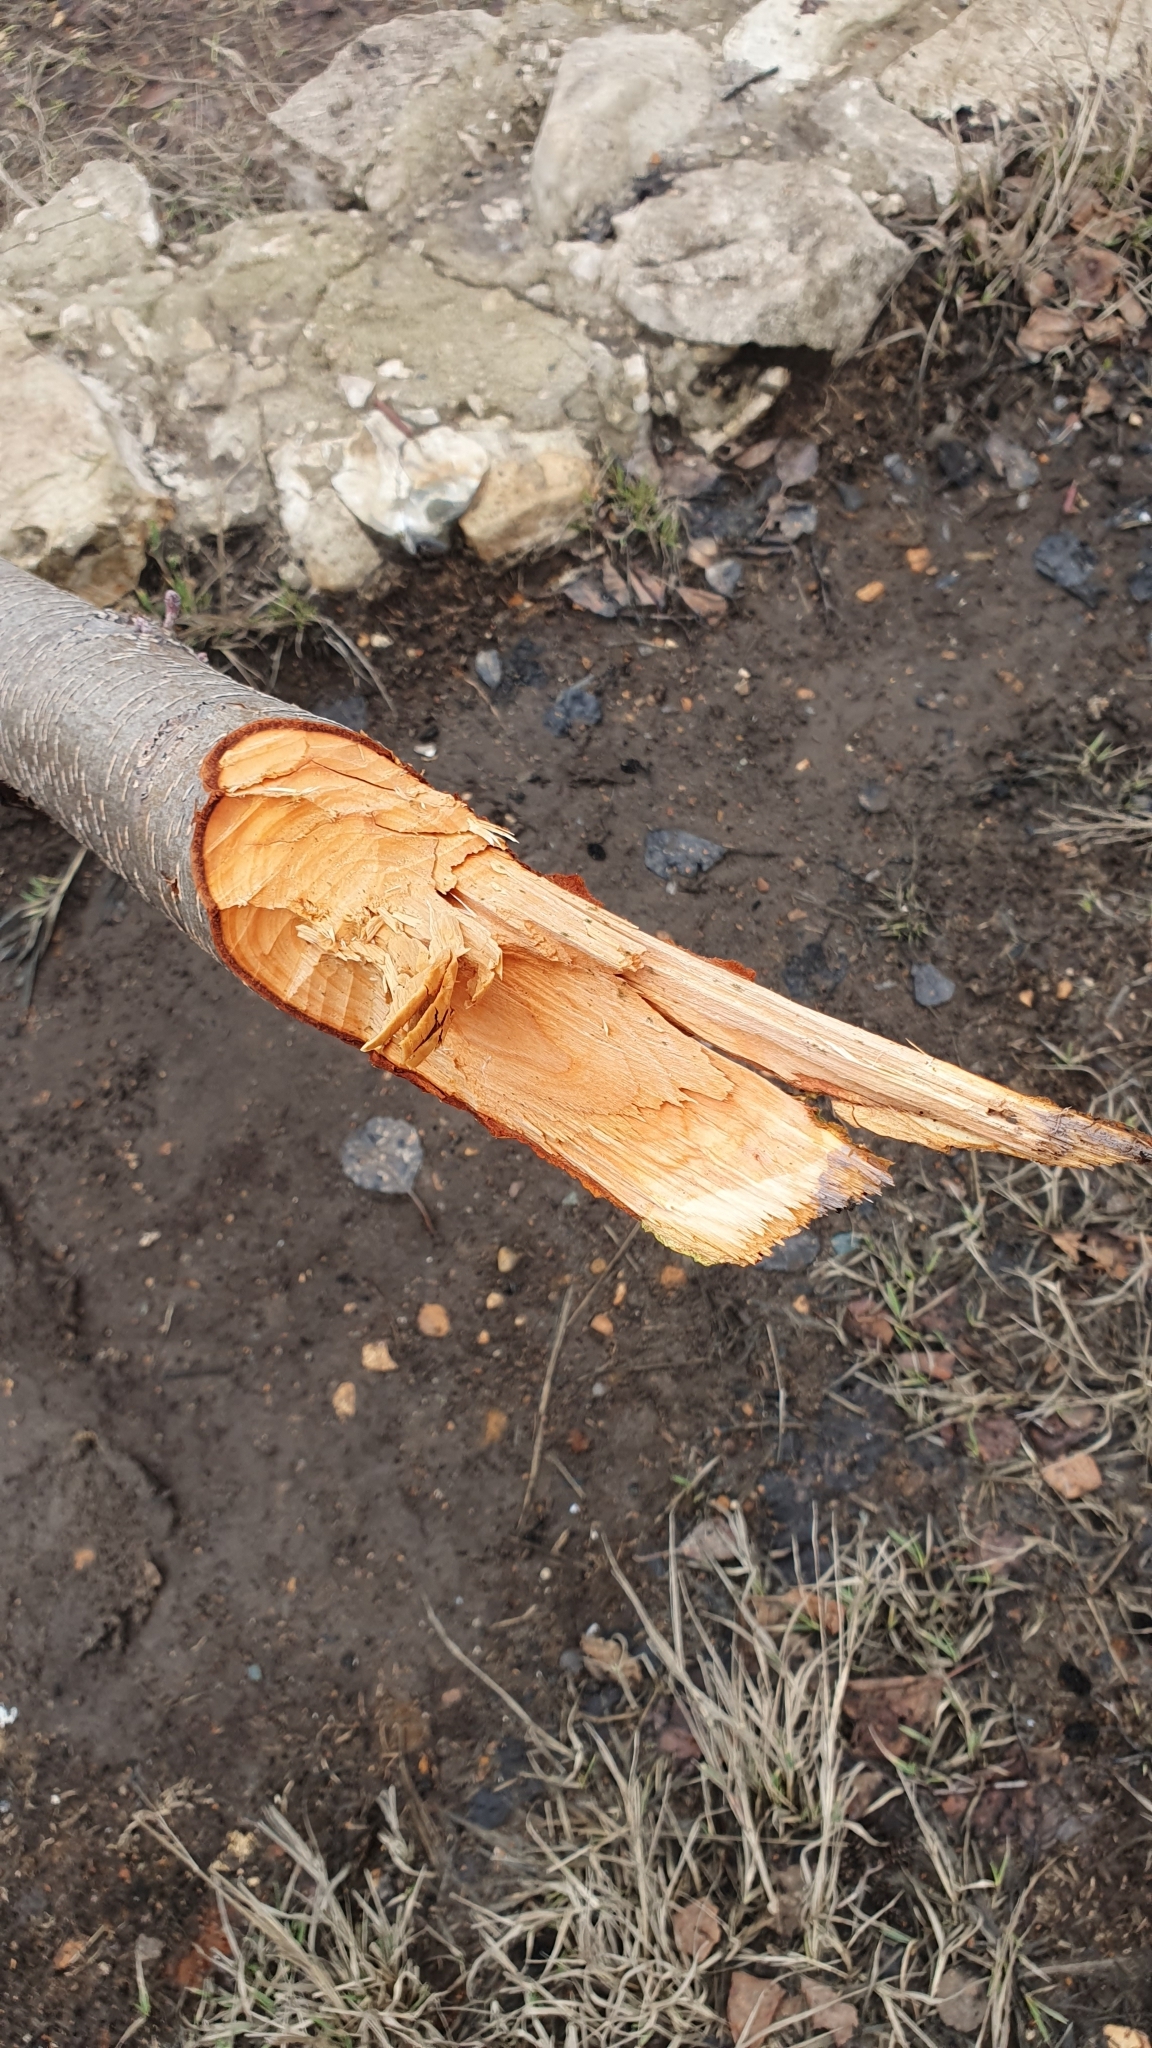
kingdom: Animalia
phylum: Chordata
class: Mammalia
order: Rodentia
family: Castoridae
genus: Castor
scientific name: Castor fiber
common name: Eurasian beaver
